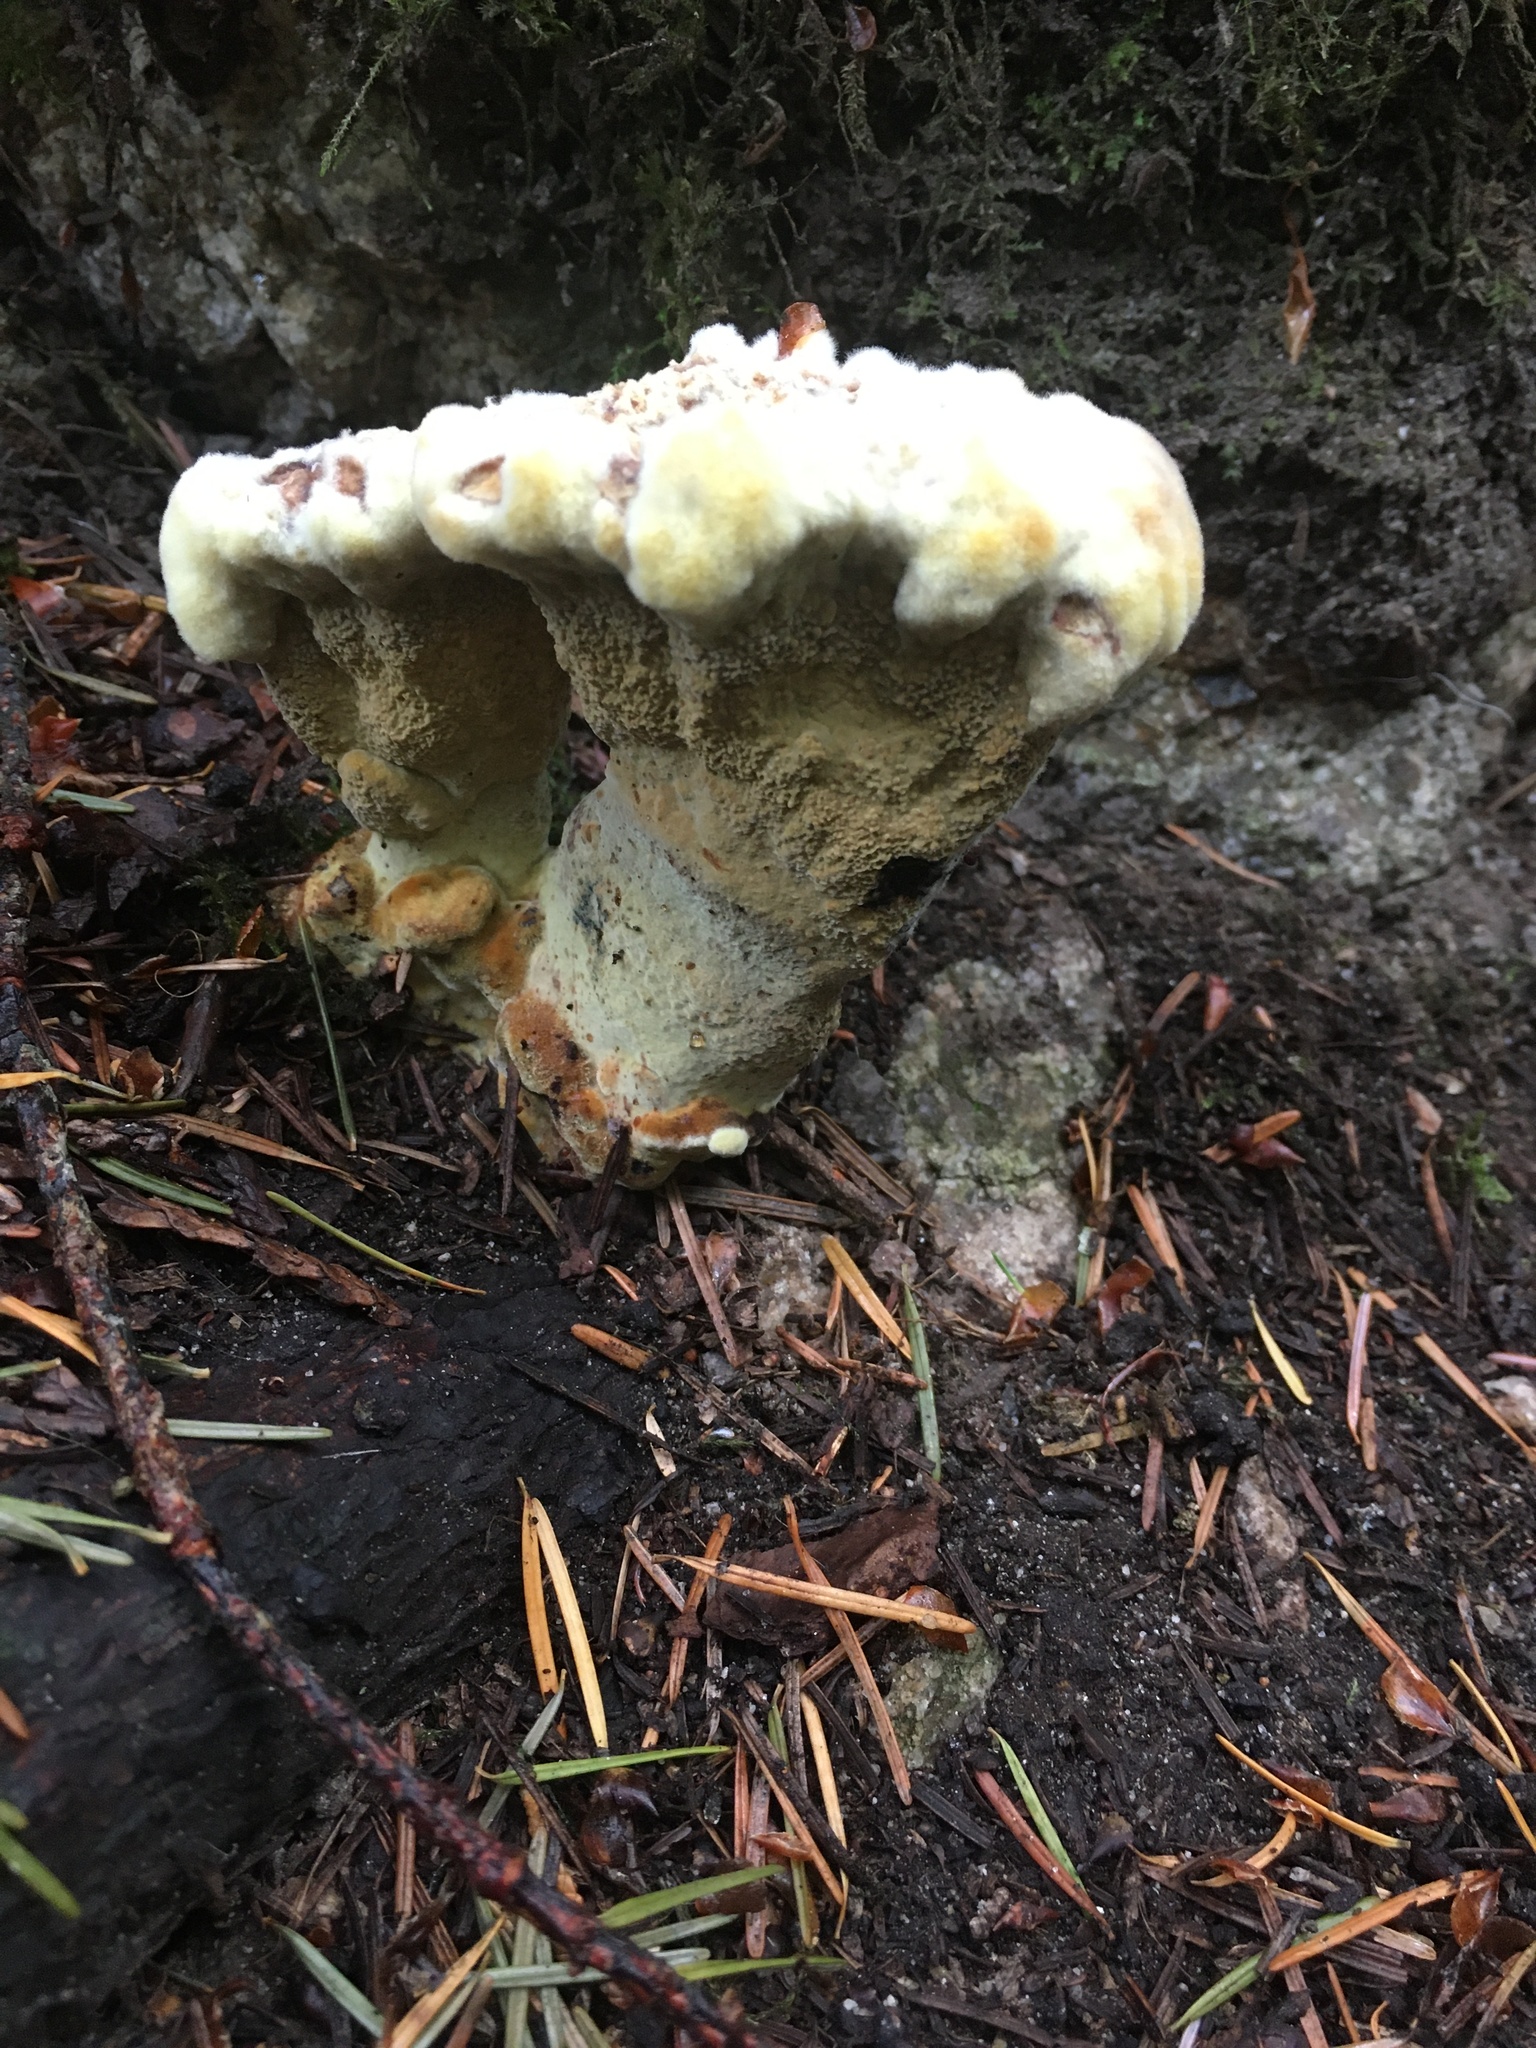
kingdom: Fungi
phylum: Basidiomycota
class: Agaricomycetes
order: Polyporales
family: Laetiporaceae
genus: Phaeolus
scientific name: Phaeolus schweinitzii
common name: Dyer's mazegill
